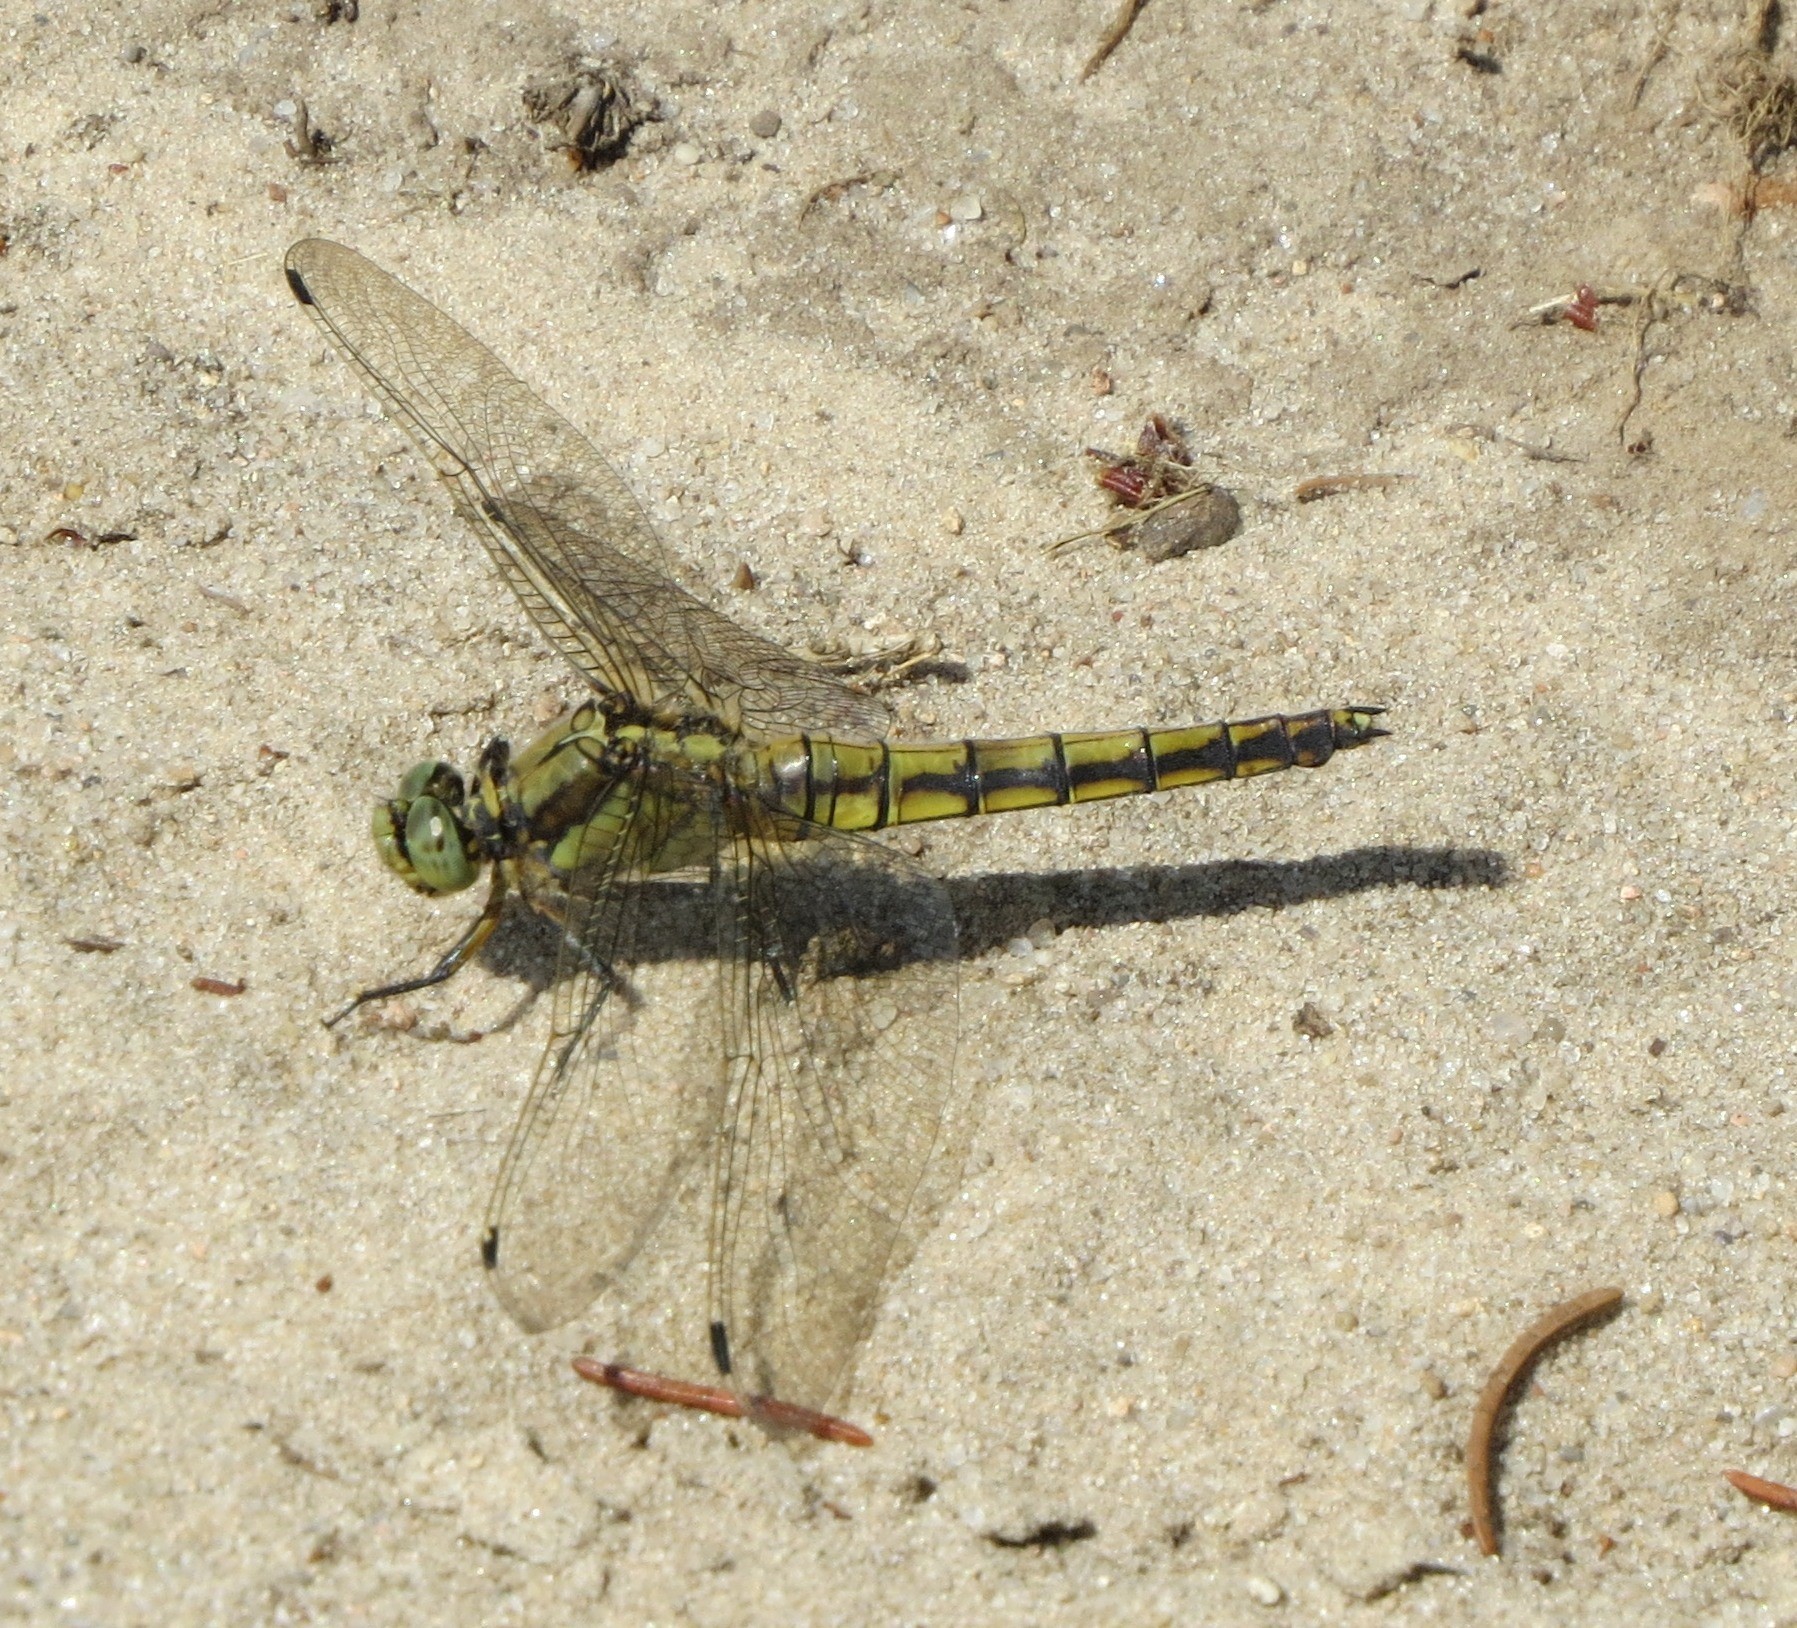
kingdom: Animalia
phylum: Arthropoda
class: Insecta
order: Odonata
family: Libellulidae
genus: Orthetrum
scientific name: Orthetrum cancellatum
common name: Black-tailed skimmer
